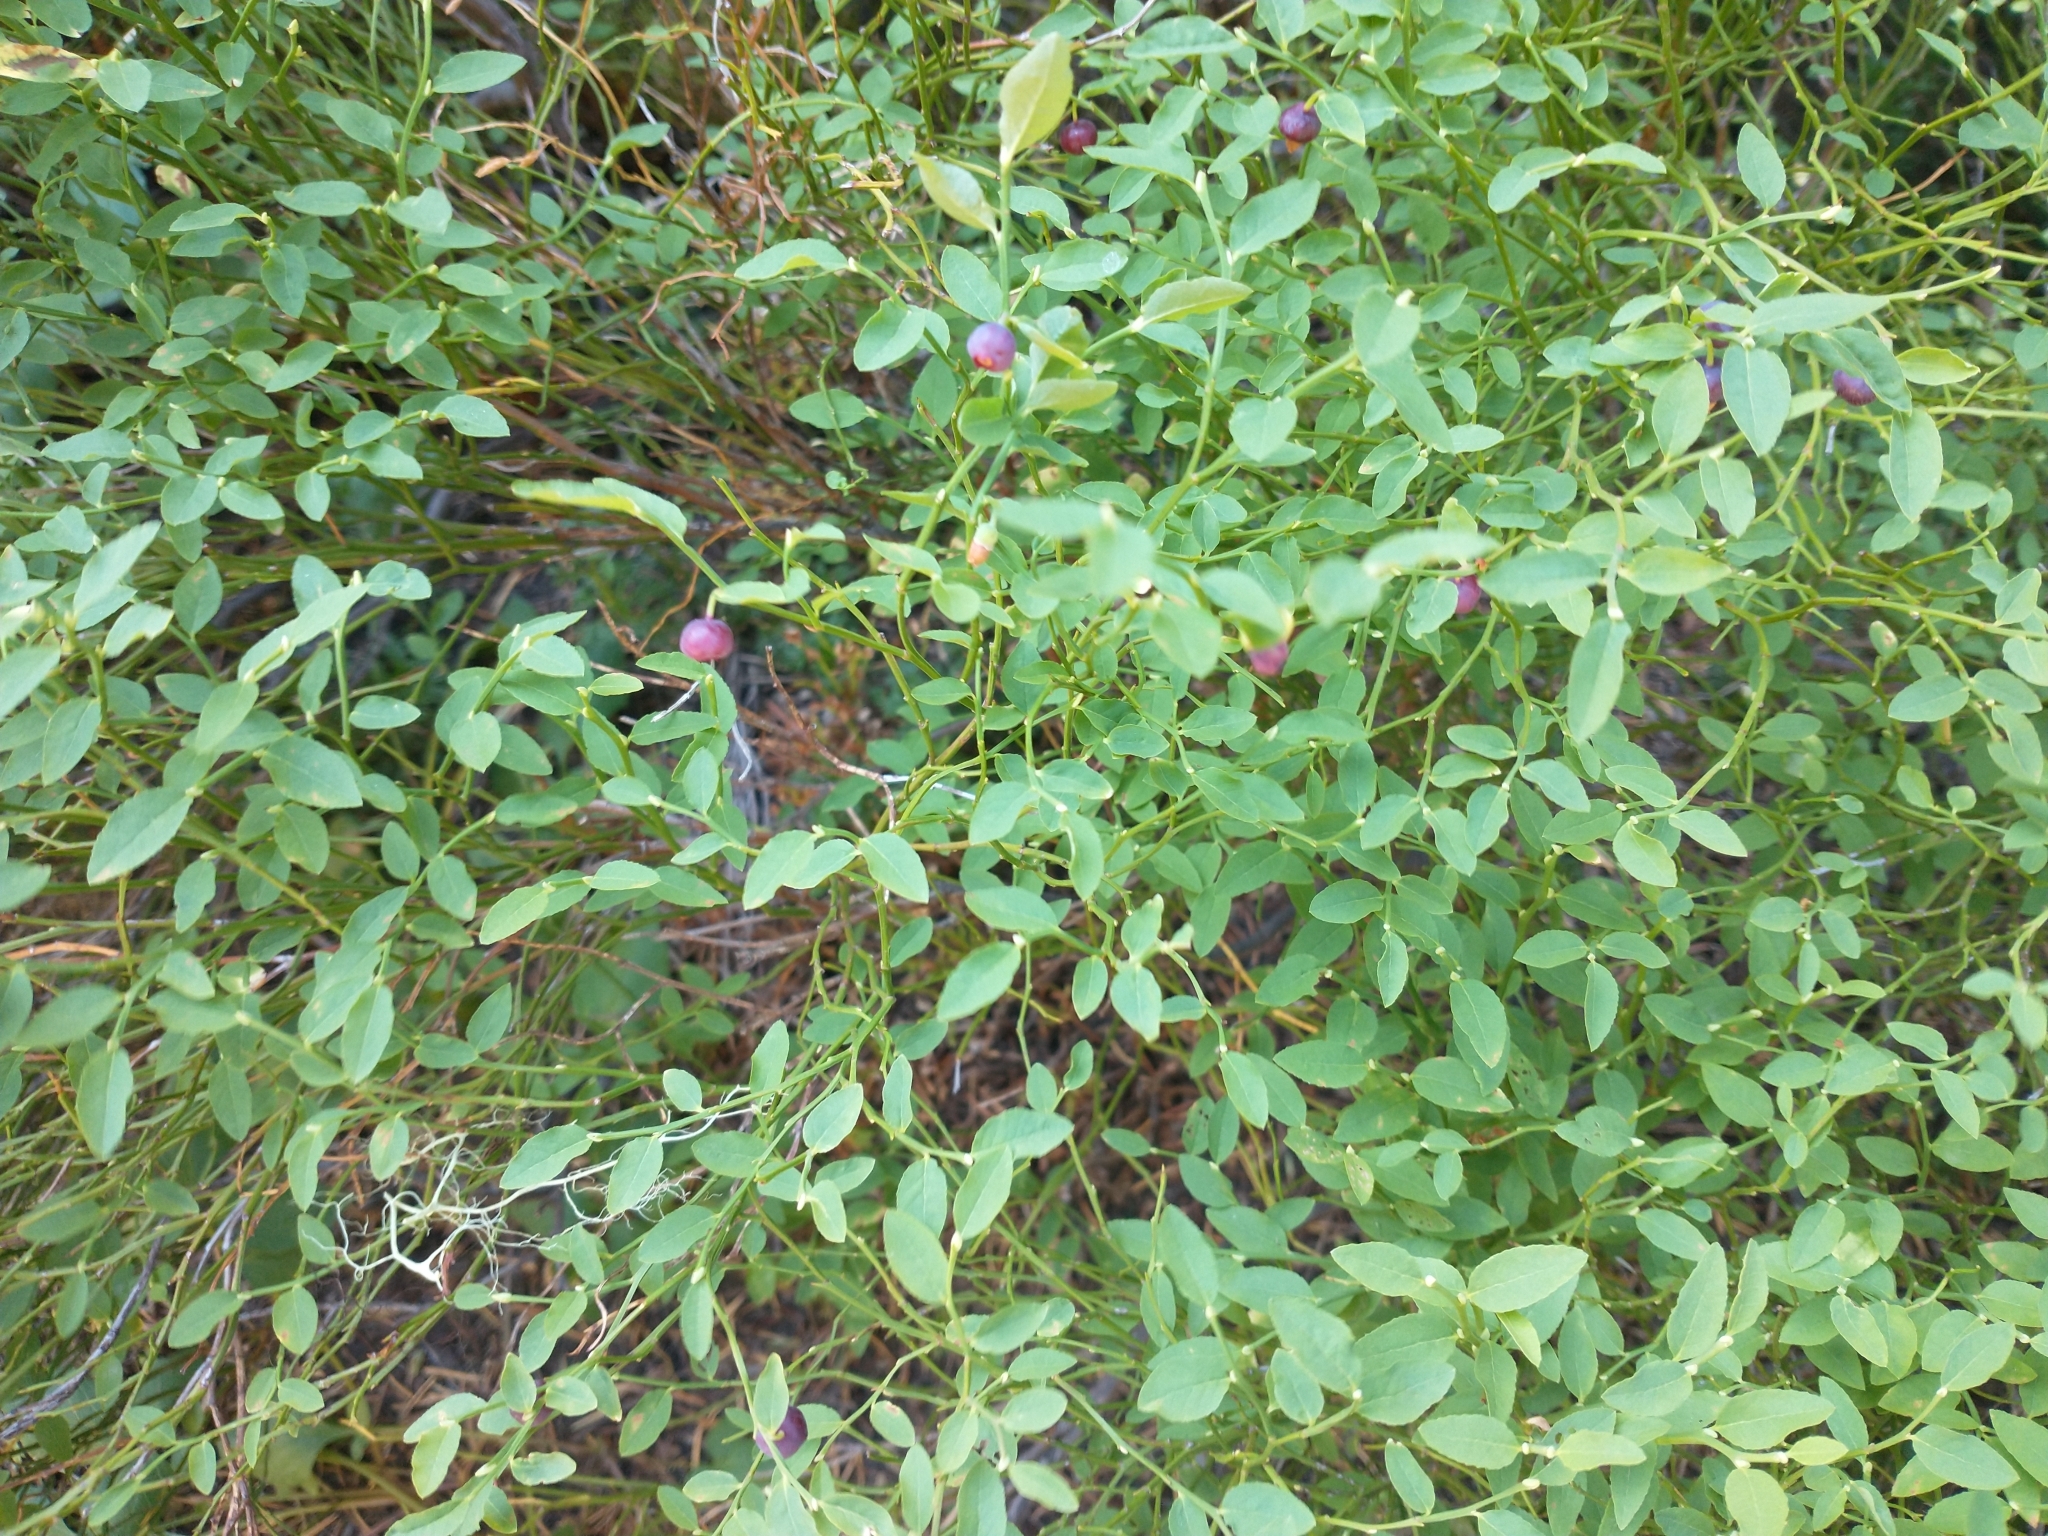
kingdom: Plantae
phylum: Tracheophyta
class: Magnoliopsida
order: Ericales
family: Ericaceae
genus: Vaccinium
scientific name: Vaccinium scoparium
